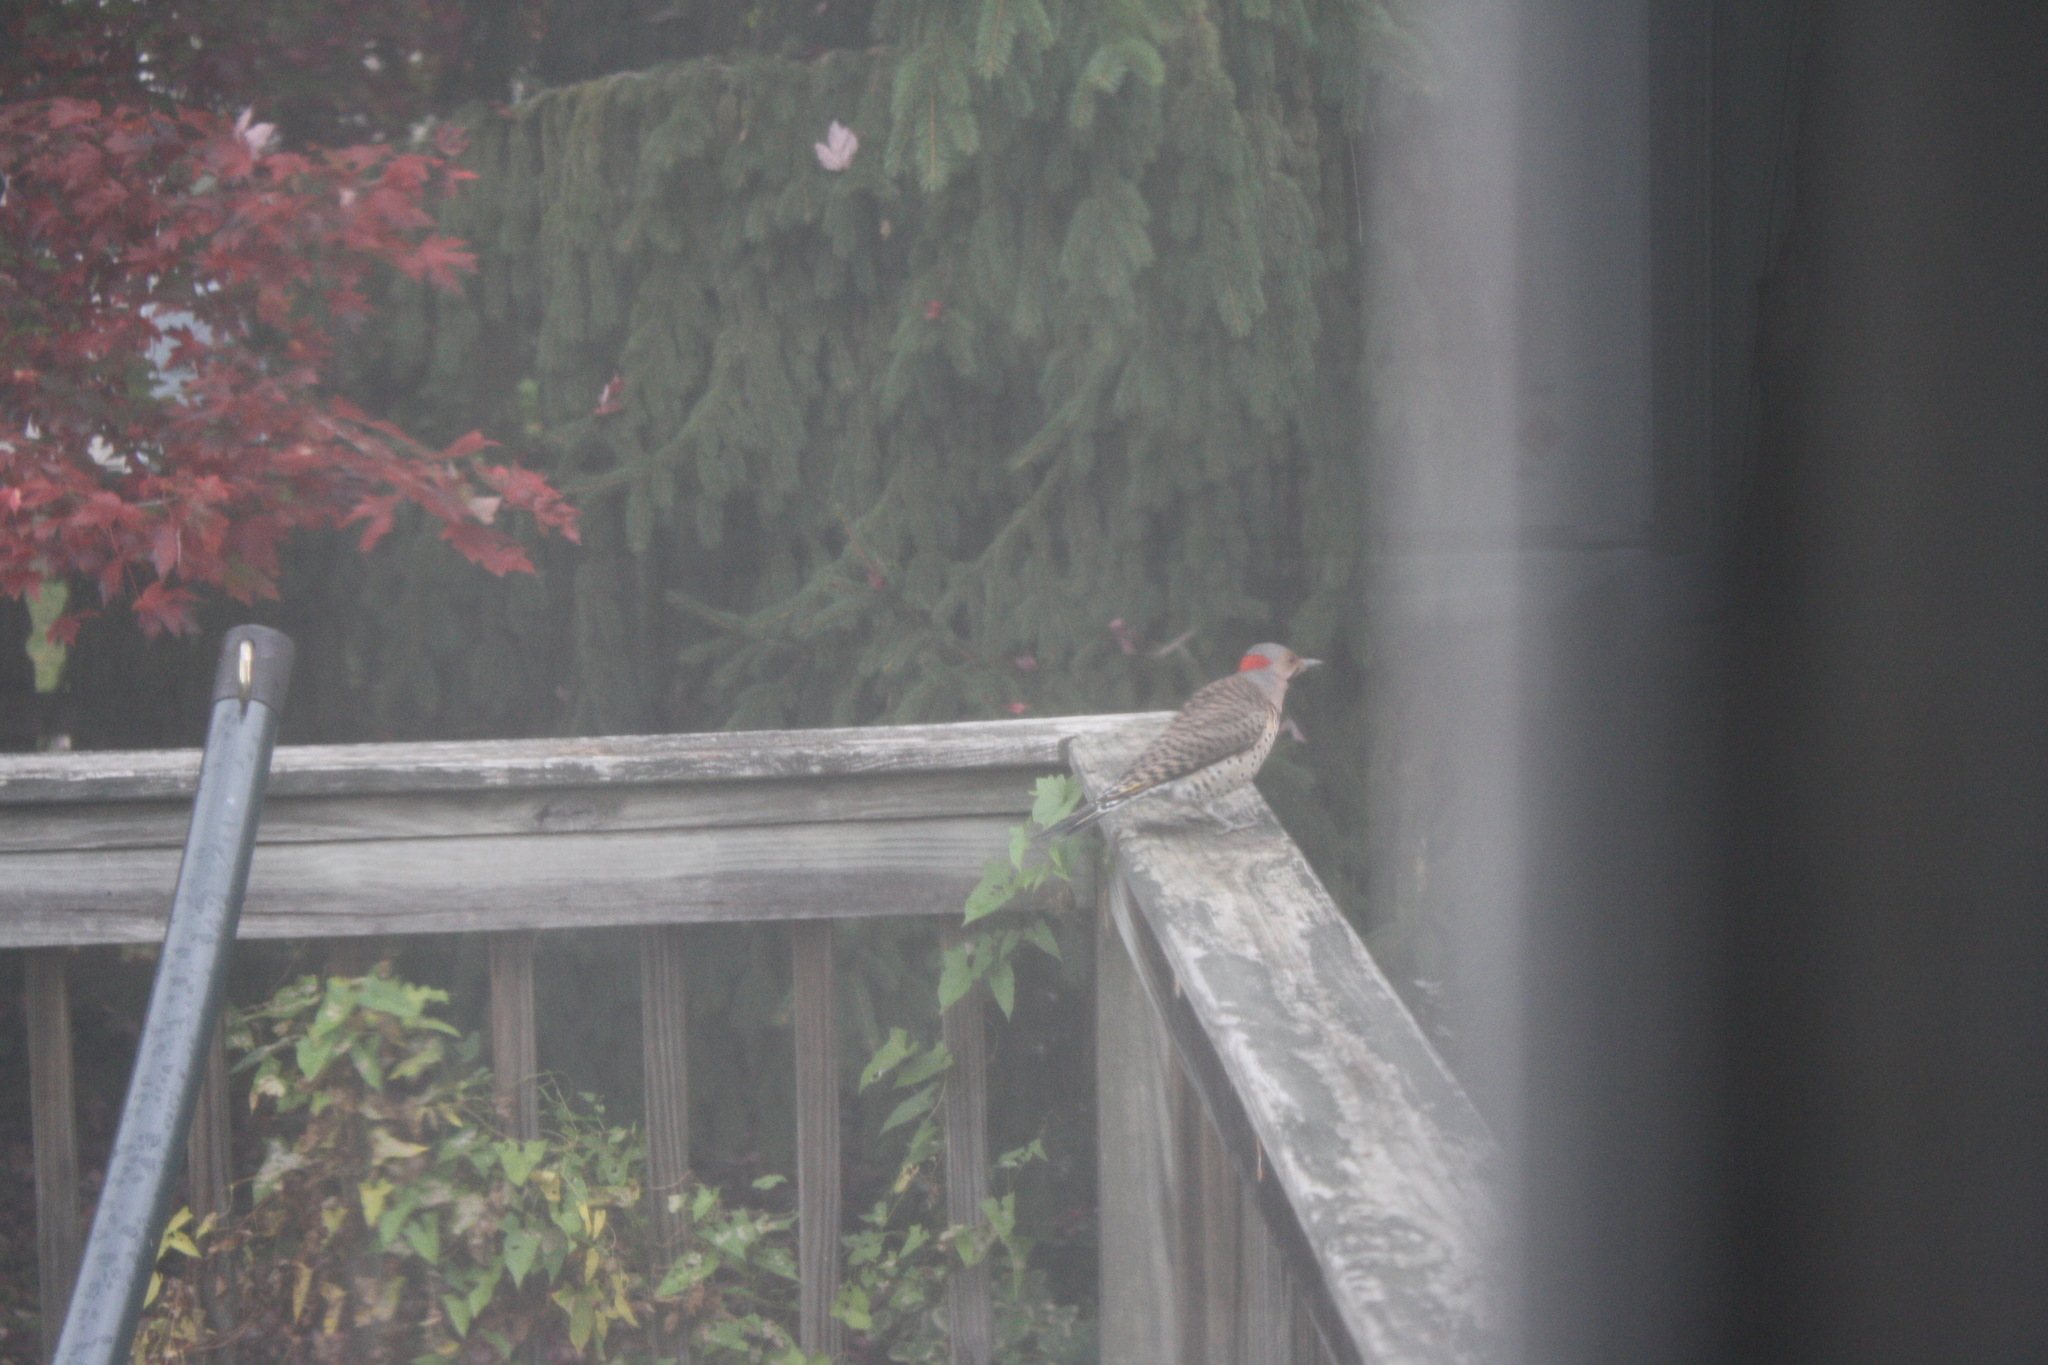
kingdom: Animalia
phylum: Chordata
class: Aves
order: Piciformes
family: Picidae
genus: Colaptes
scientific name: Colaptes auratus
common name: Northern flicker
